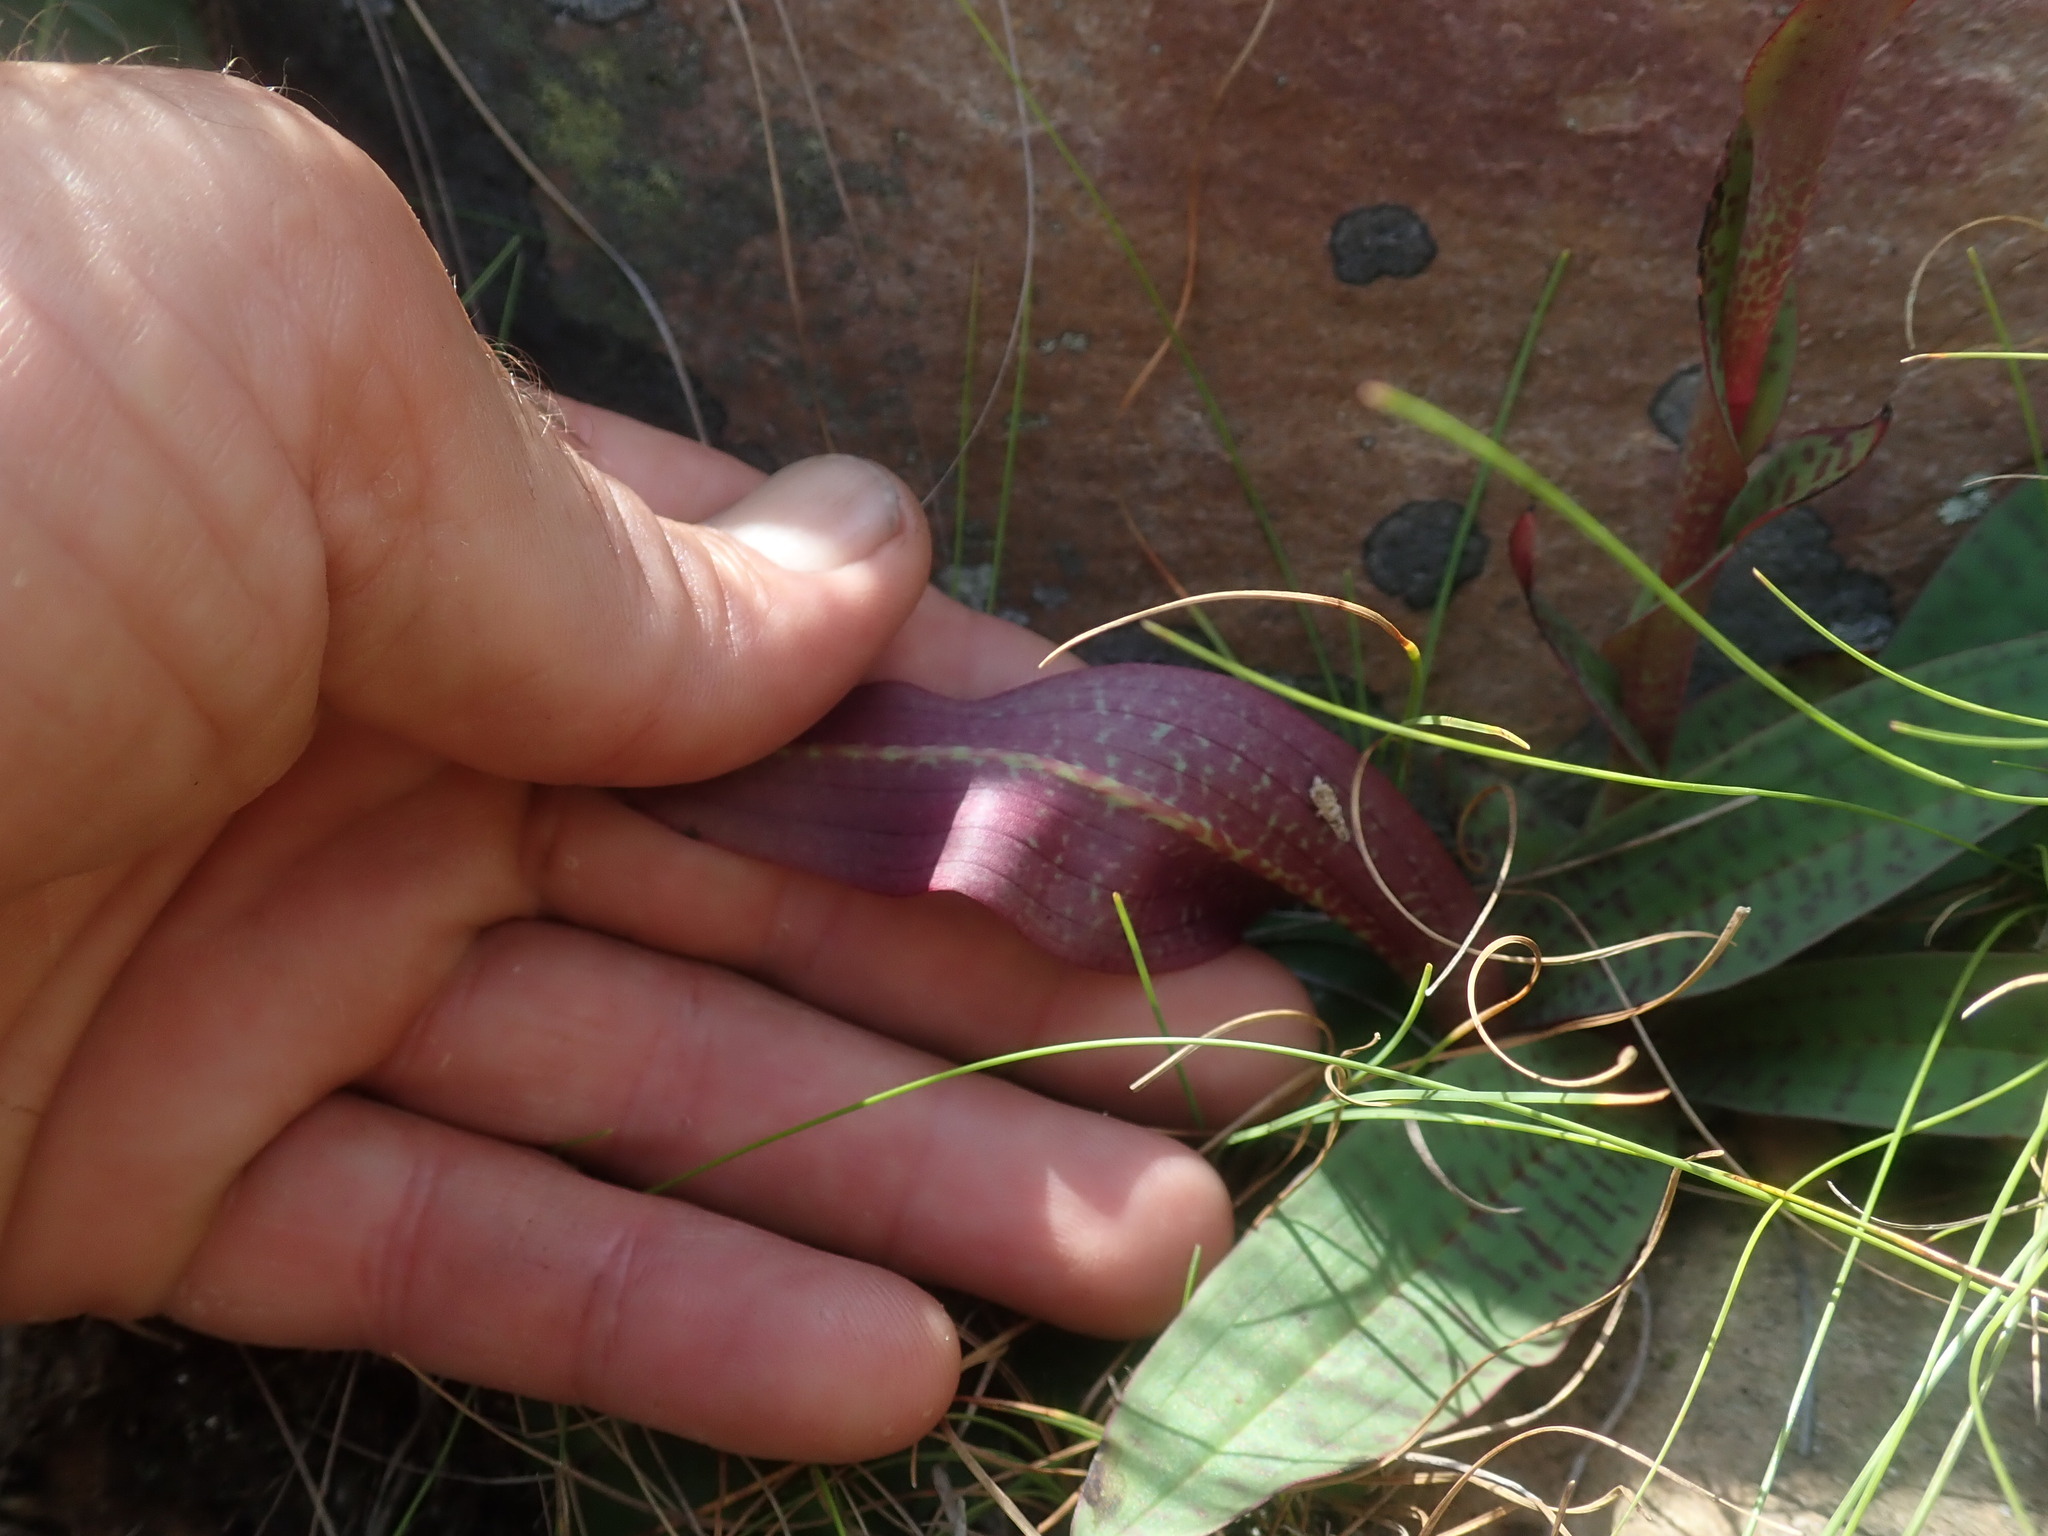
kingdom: Plantae
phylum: Tracheophyta
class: Liliopsida
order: Asparagales
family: Orchidaceae
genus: Disa
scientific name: Disa fragrans
